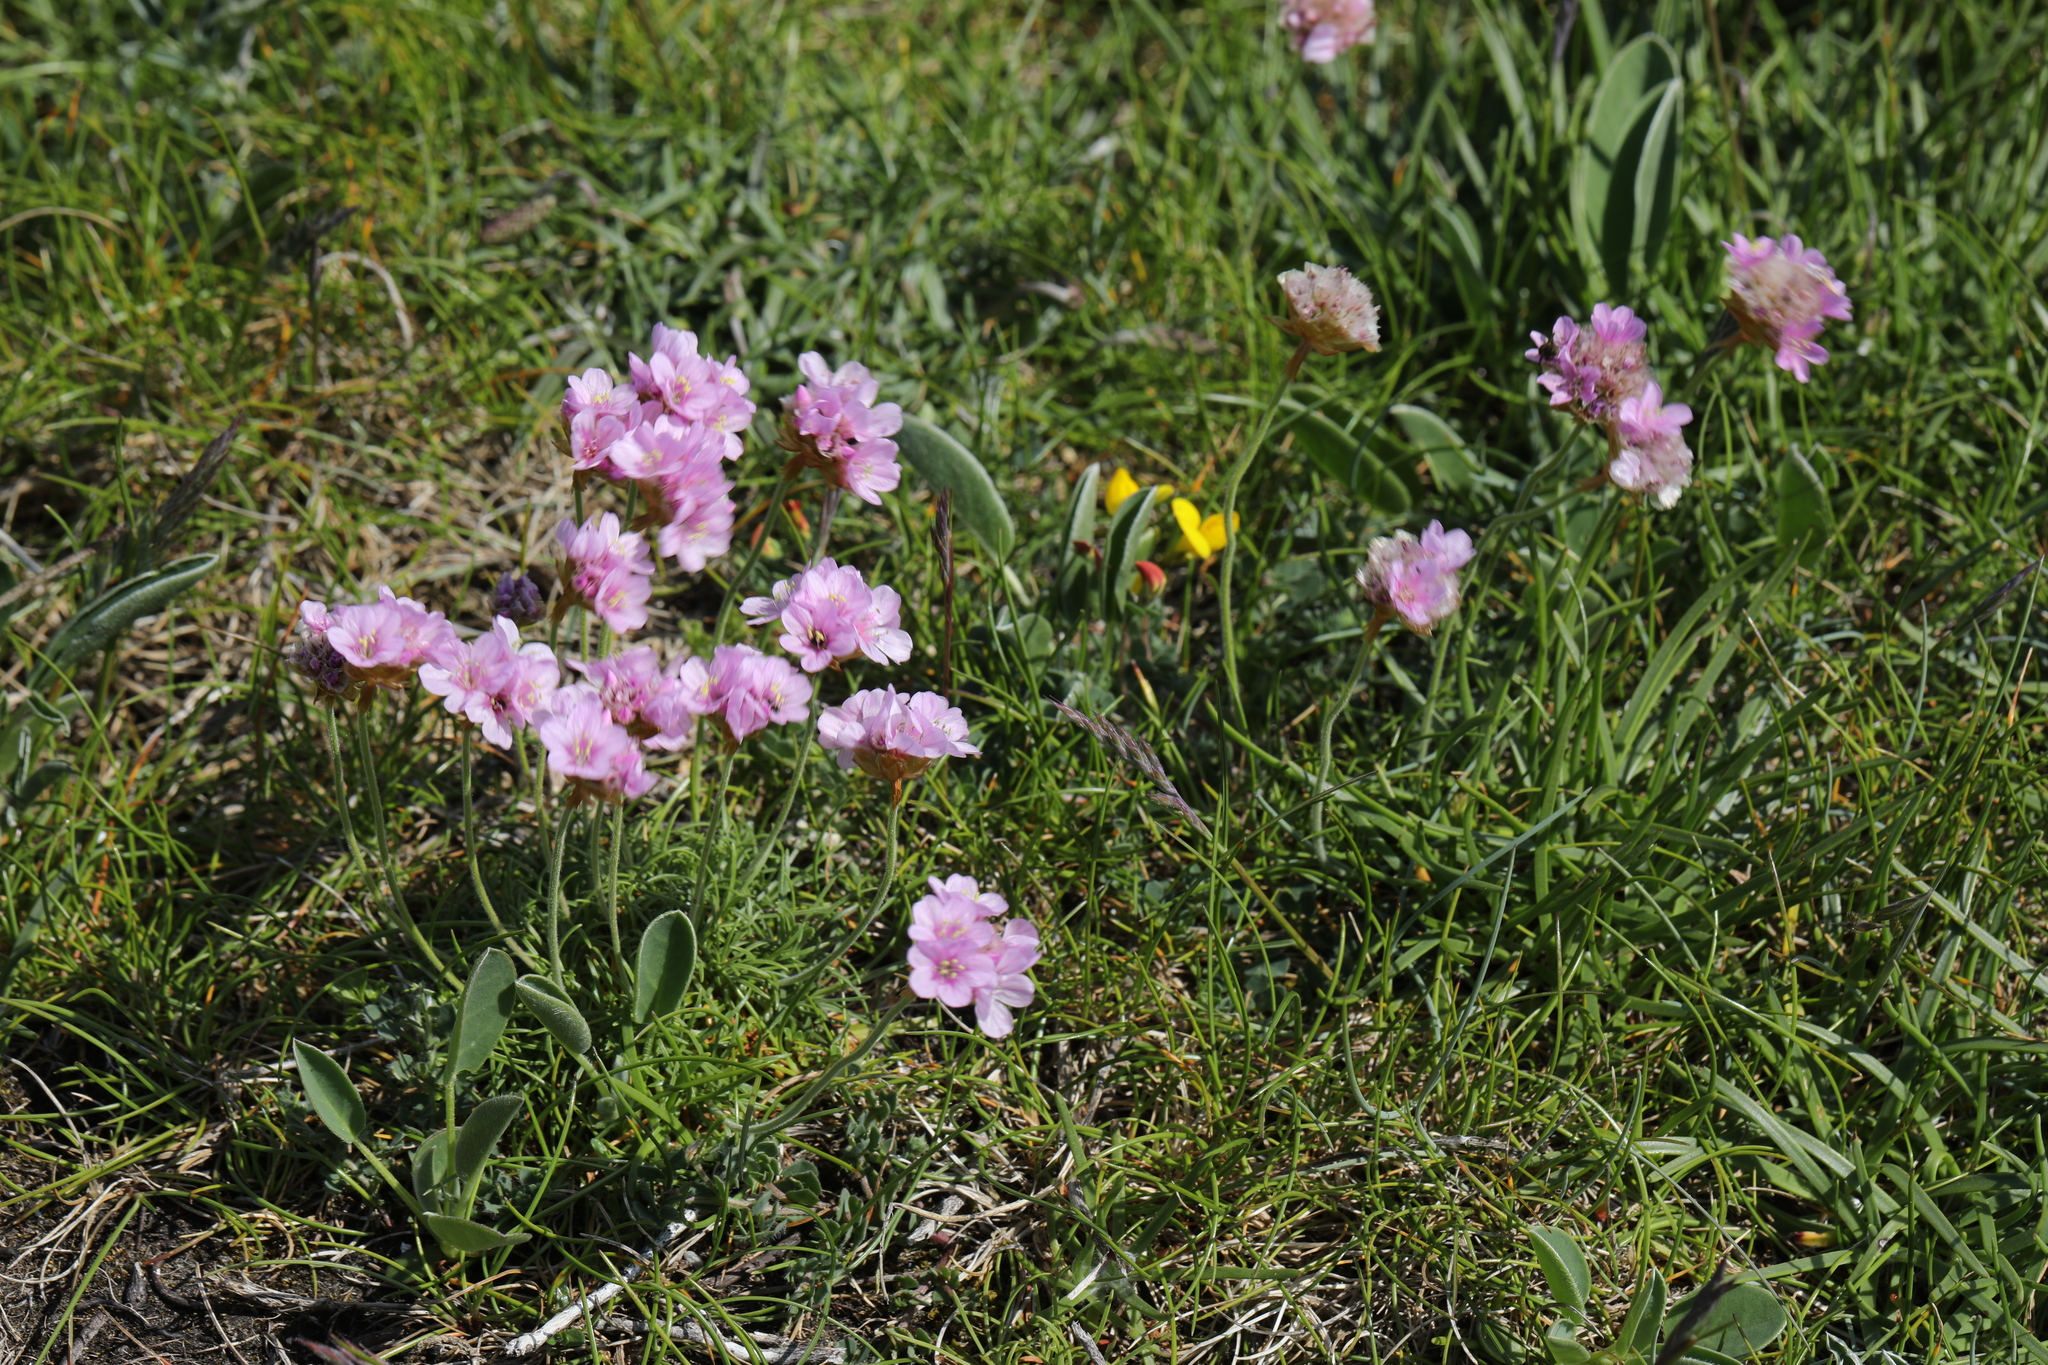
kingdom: Plantae
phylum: Tracheophyta
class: Magnoliopsida
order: Caryophyllales
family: Plumbaginaceae
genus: Armeria
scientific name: Armeria maritima
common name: Thrift
